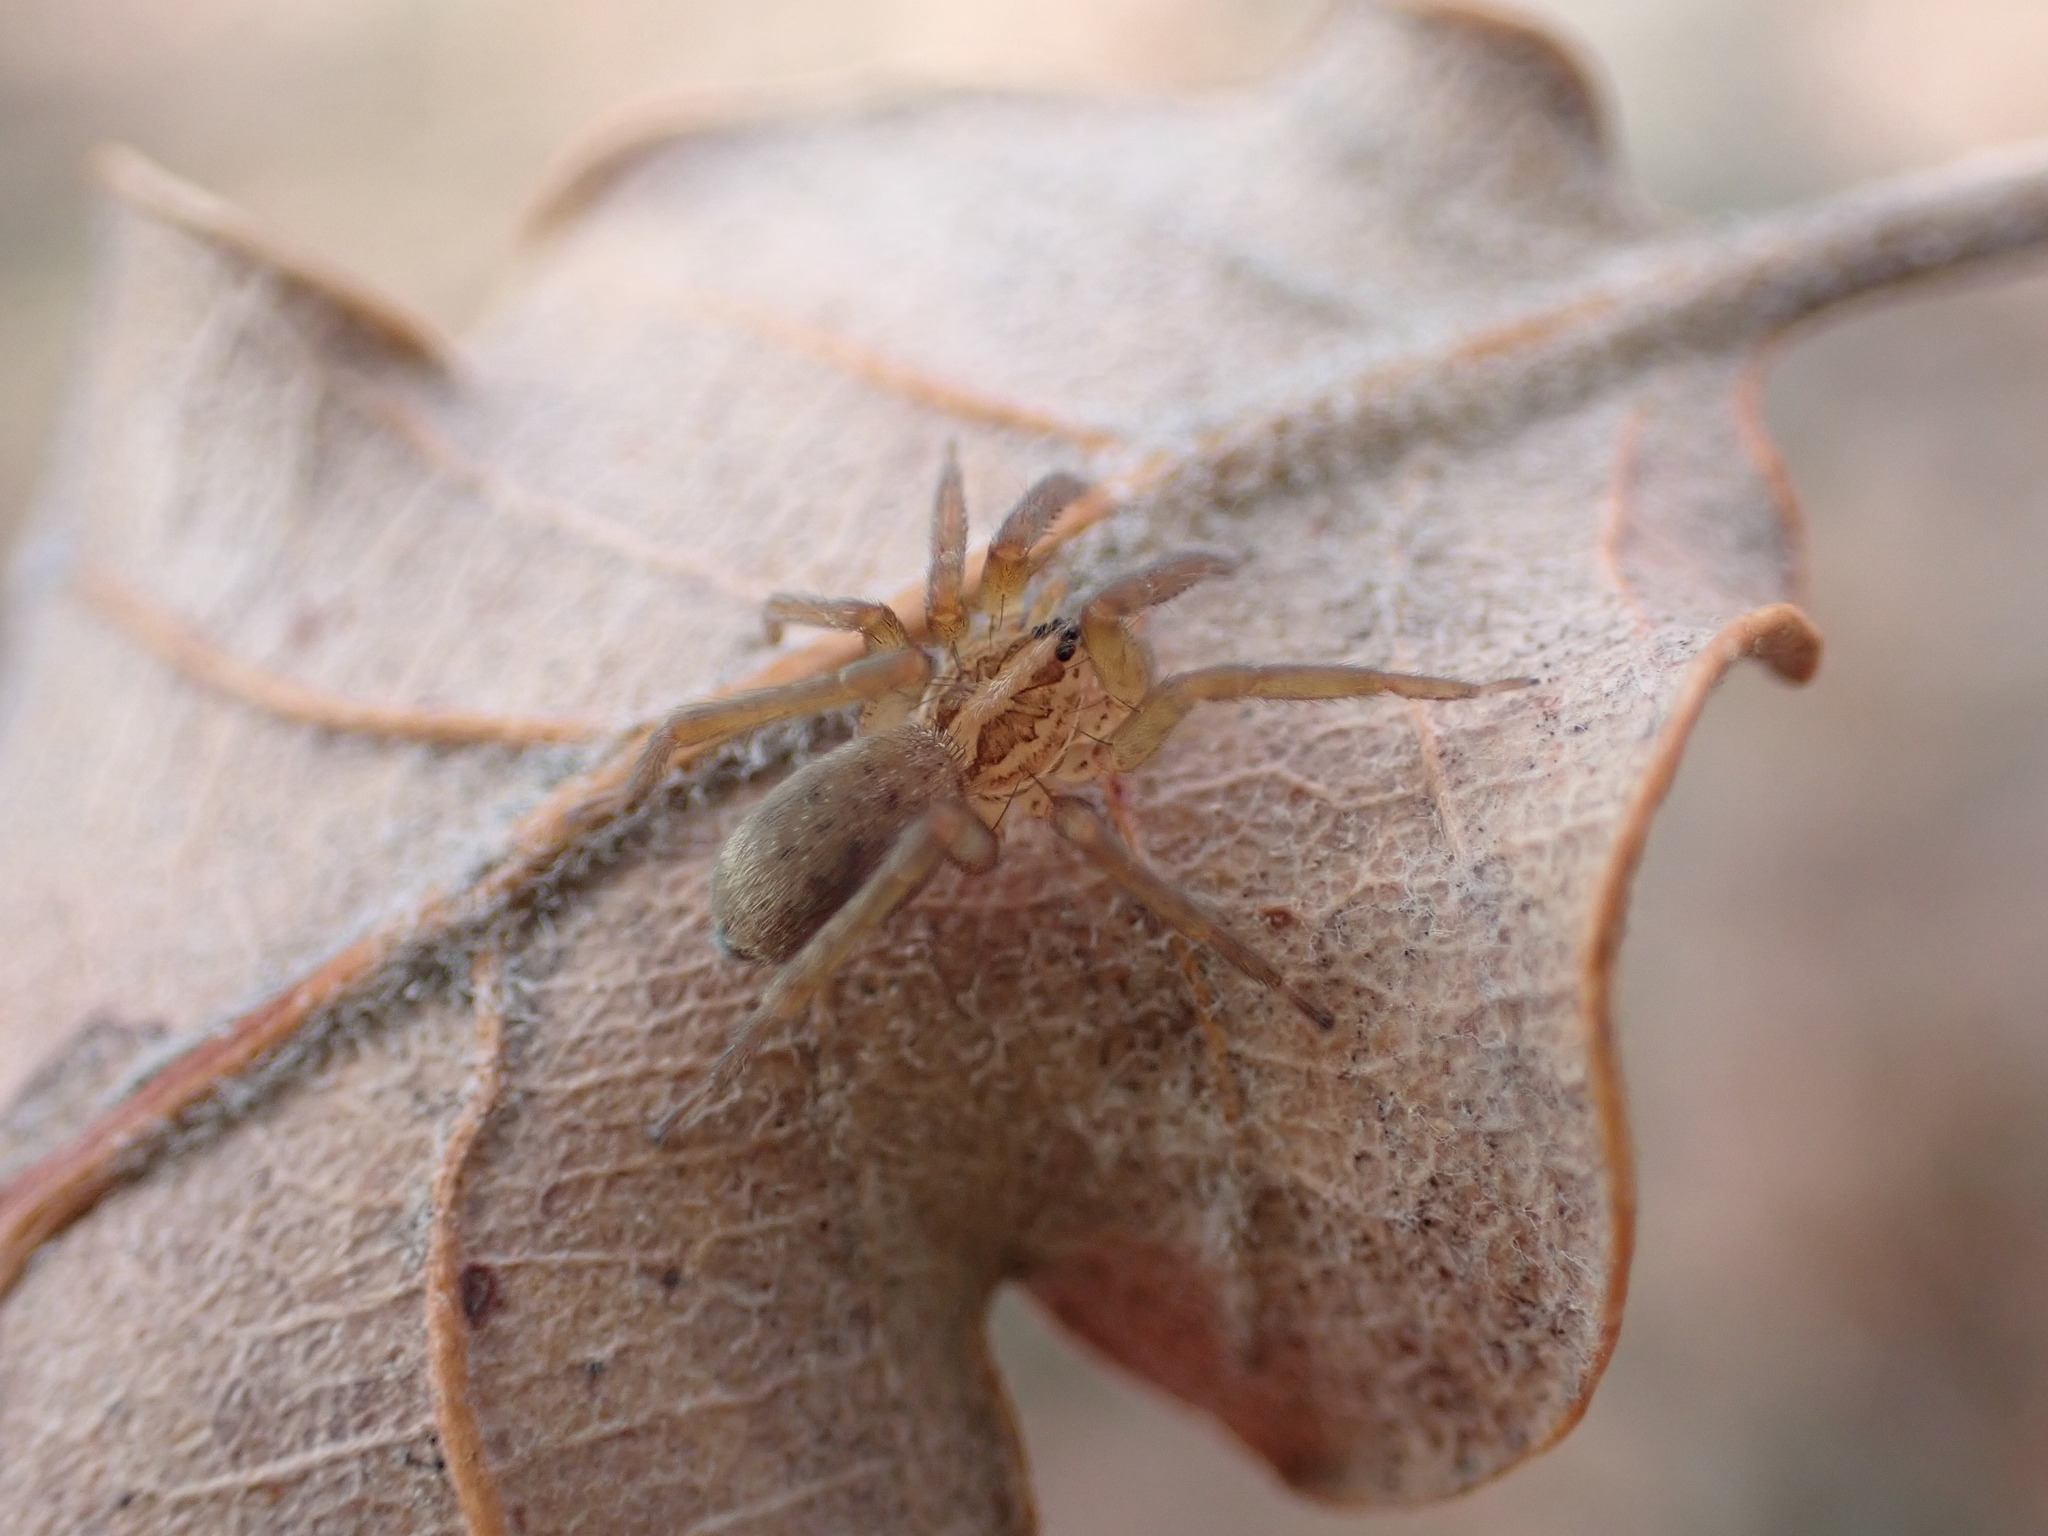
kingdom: Animalia
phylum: Arthropoda
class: Arachnida
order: Araneae
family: Miturgidae
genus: Zora
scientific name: Zora manicata
